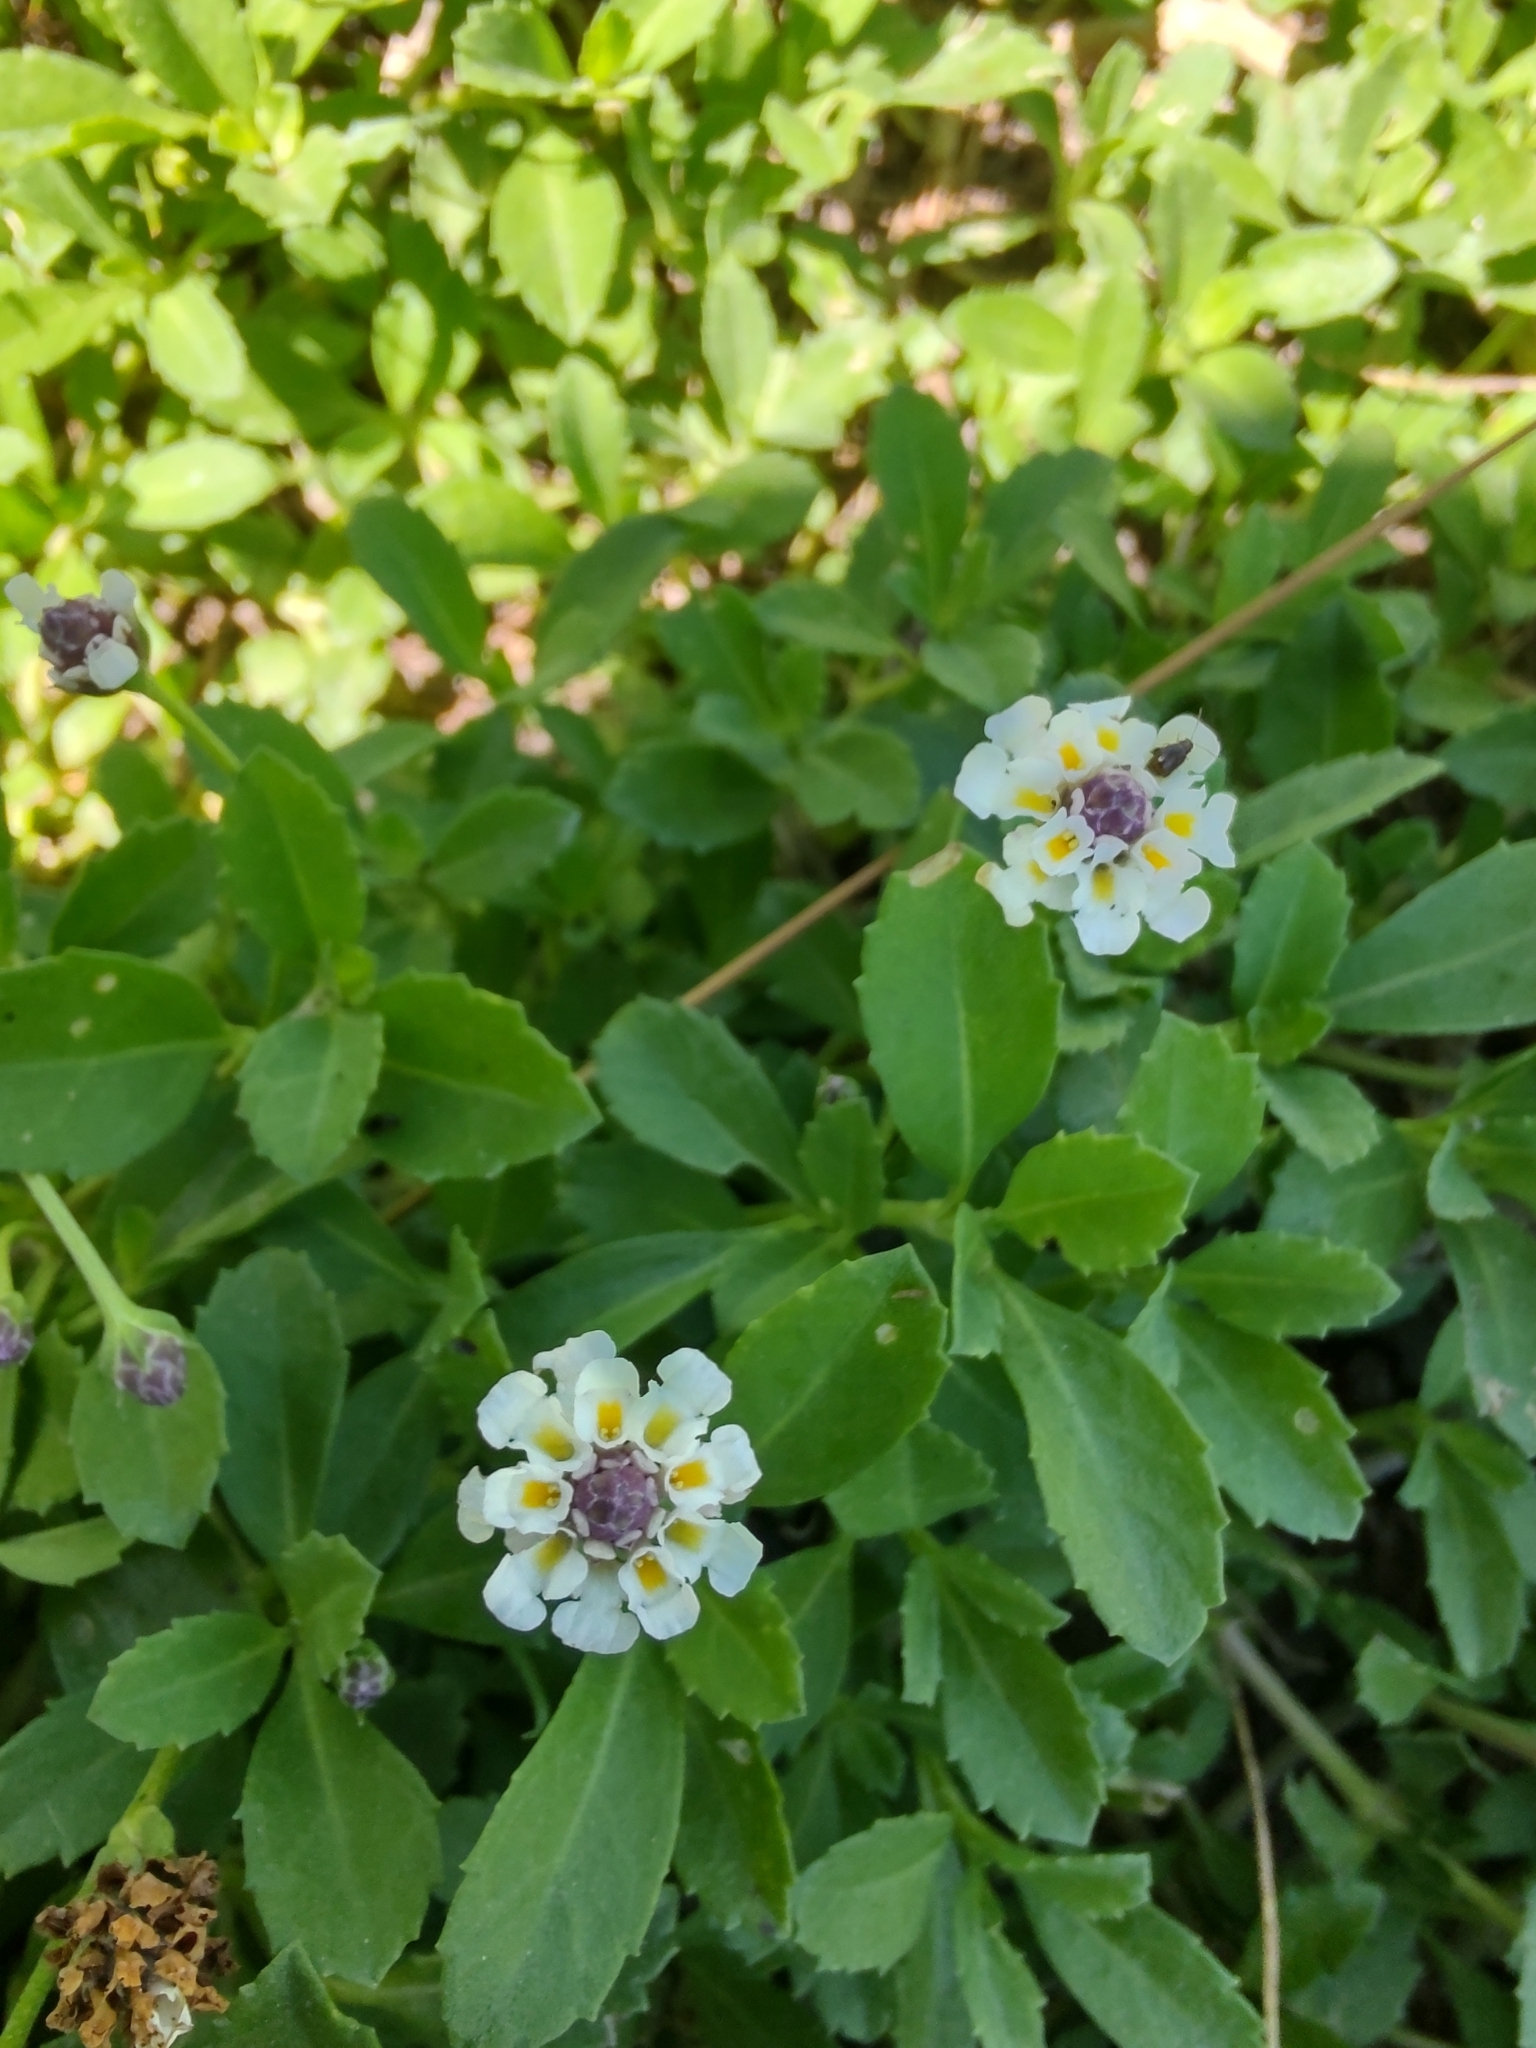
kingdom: Plantae
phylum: Tracheophyta
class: Magnoliopsida
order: Lamiales
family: Verbenaceae
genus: Phyla
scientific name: Phyla nodiflora
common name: Frogfruit
